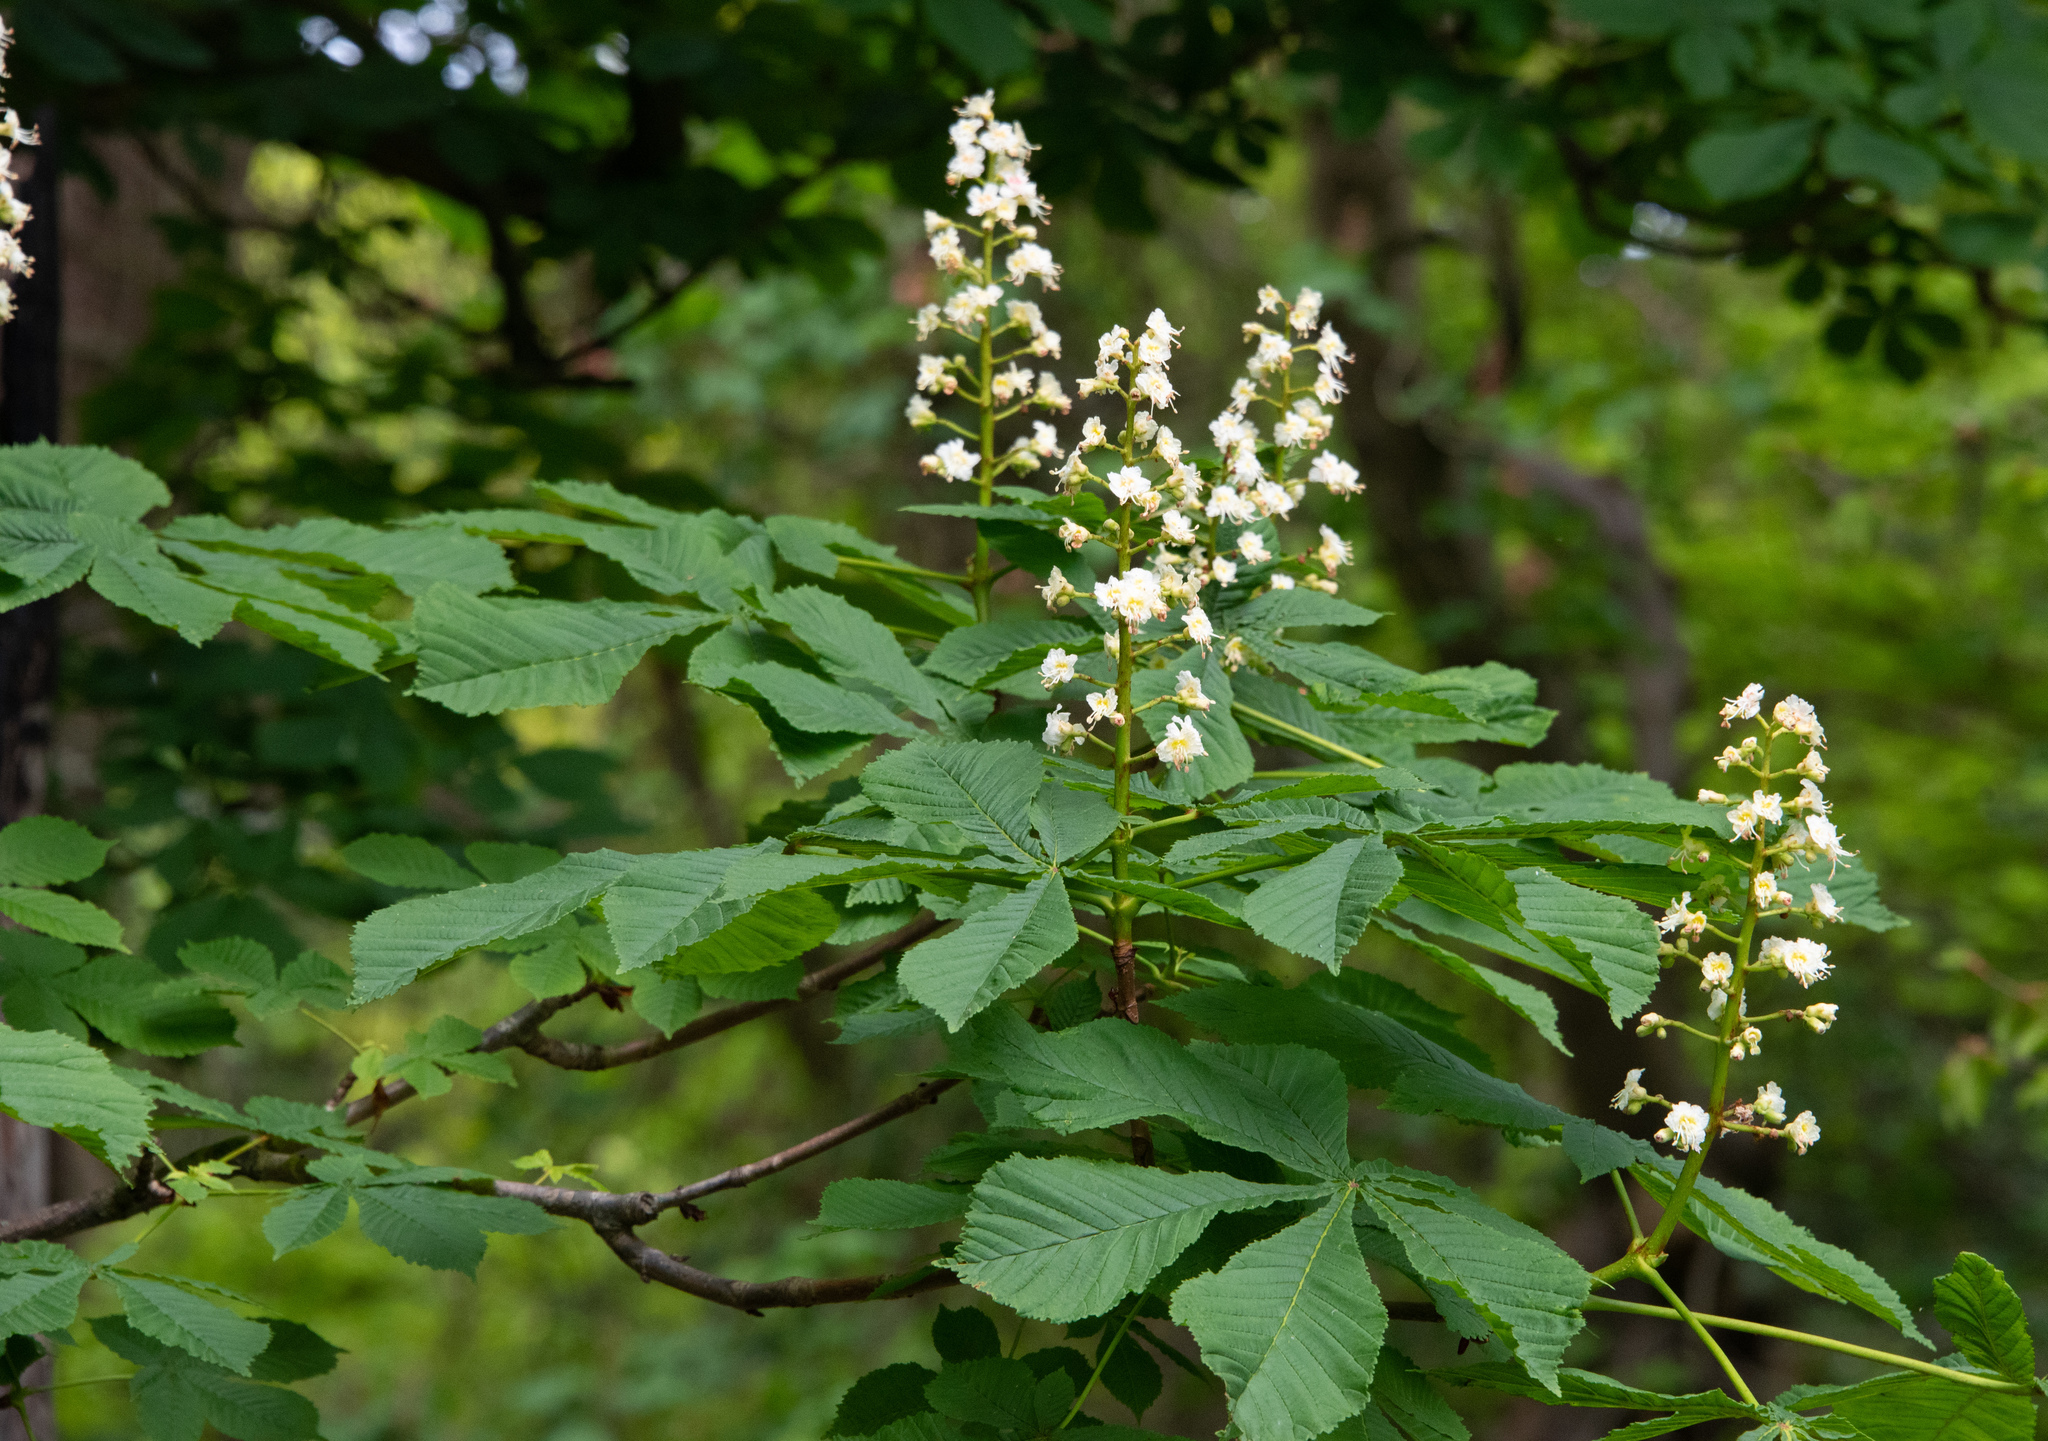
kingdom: Plantae
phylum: Tracheophyta
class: Magnoliopsida
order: Sapindales
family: Sapindaceae
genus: Aesculus
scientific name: Aesculus hippocastanum
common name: Horse-chestnut
